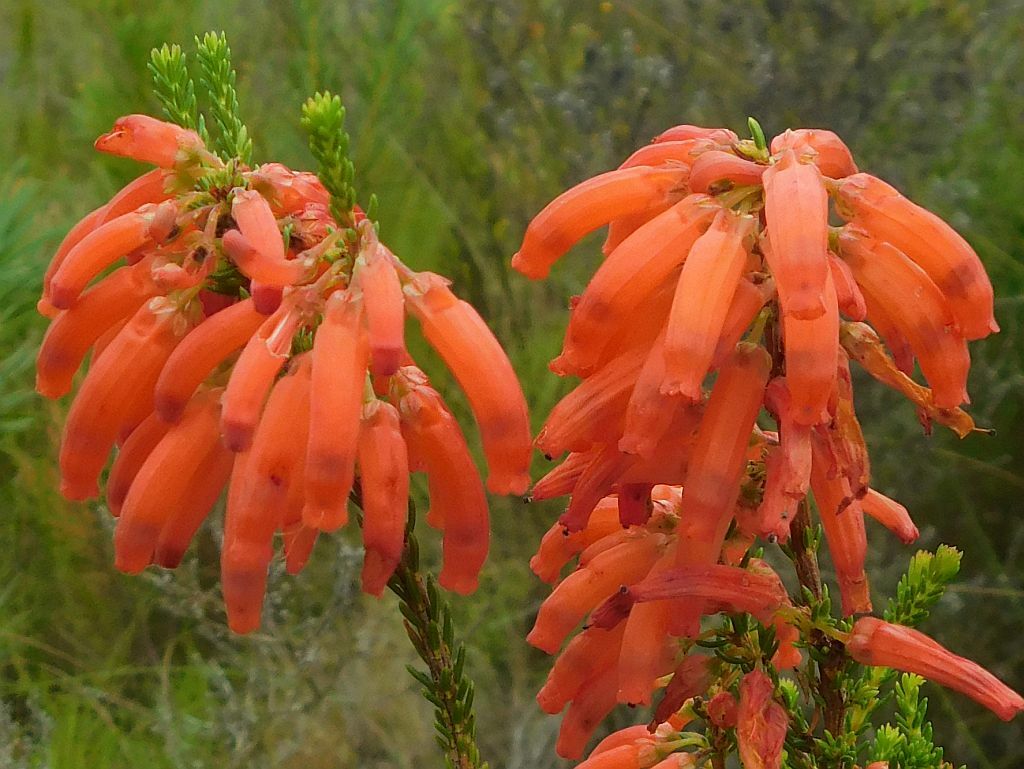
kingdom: Plantae
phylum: Tracheophyta
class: Magnoliopsida
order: Ericales
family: Ericaceae
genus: Erica
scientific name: Erica mammosa
